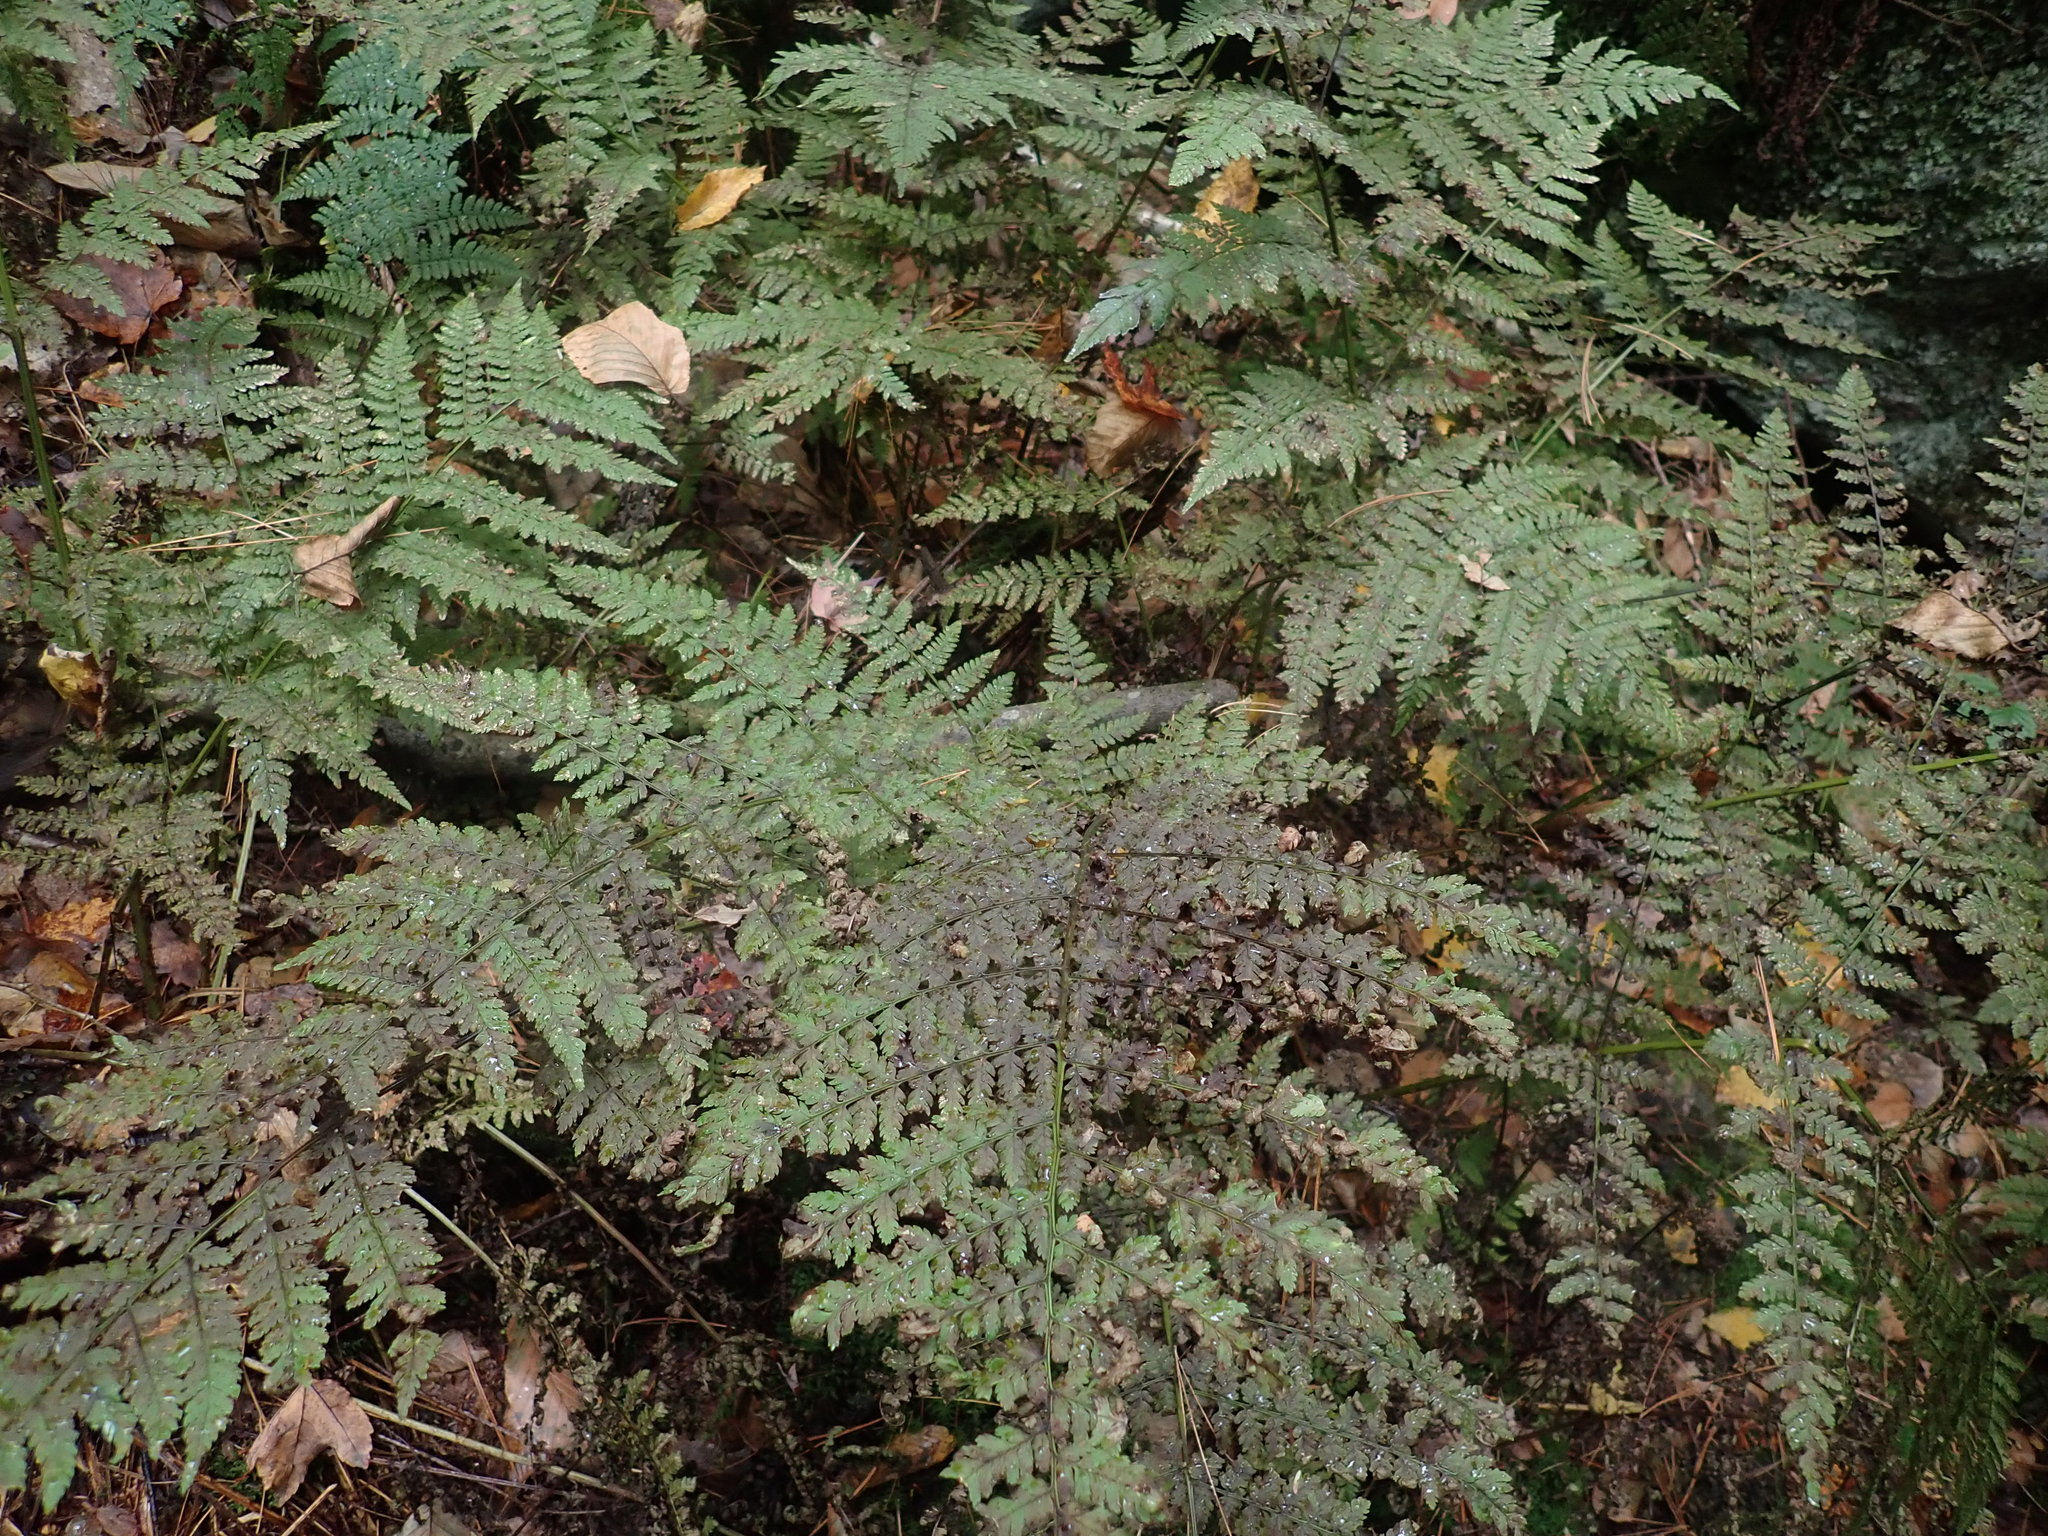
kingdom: Plantae
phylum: Tracheophyta
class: Polypodiopsida
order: Polypodiales
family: Dryopteridaceae
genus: Dryopteris
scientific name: Dryopteris campyloptera
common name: Mountain wood fern
